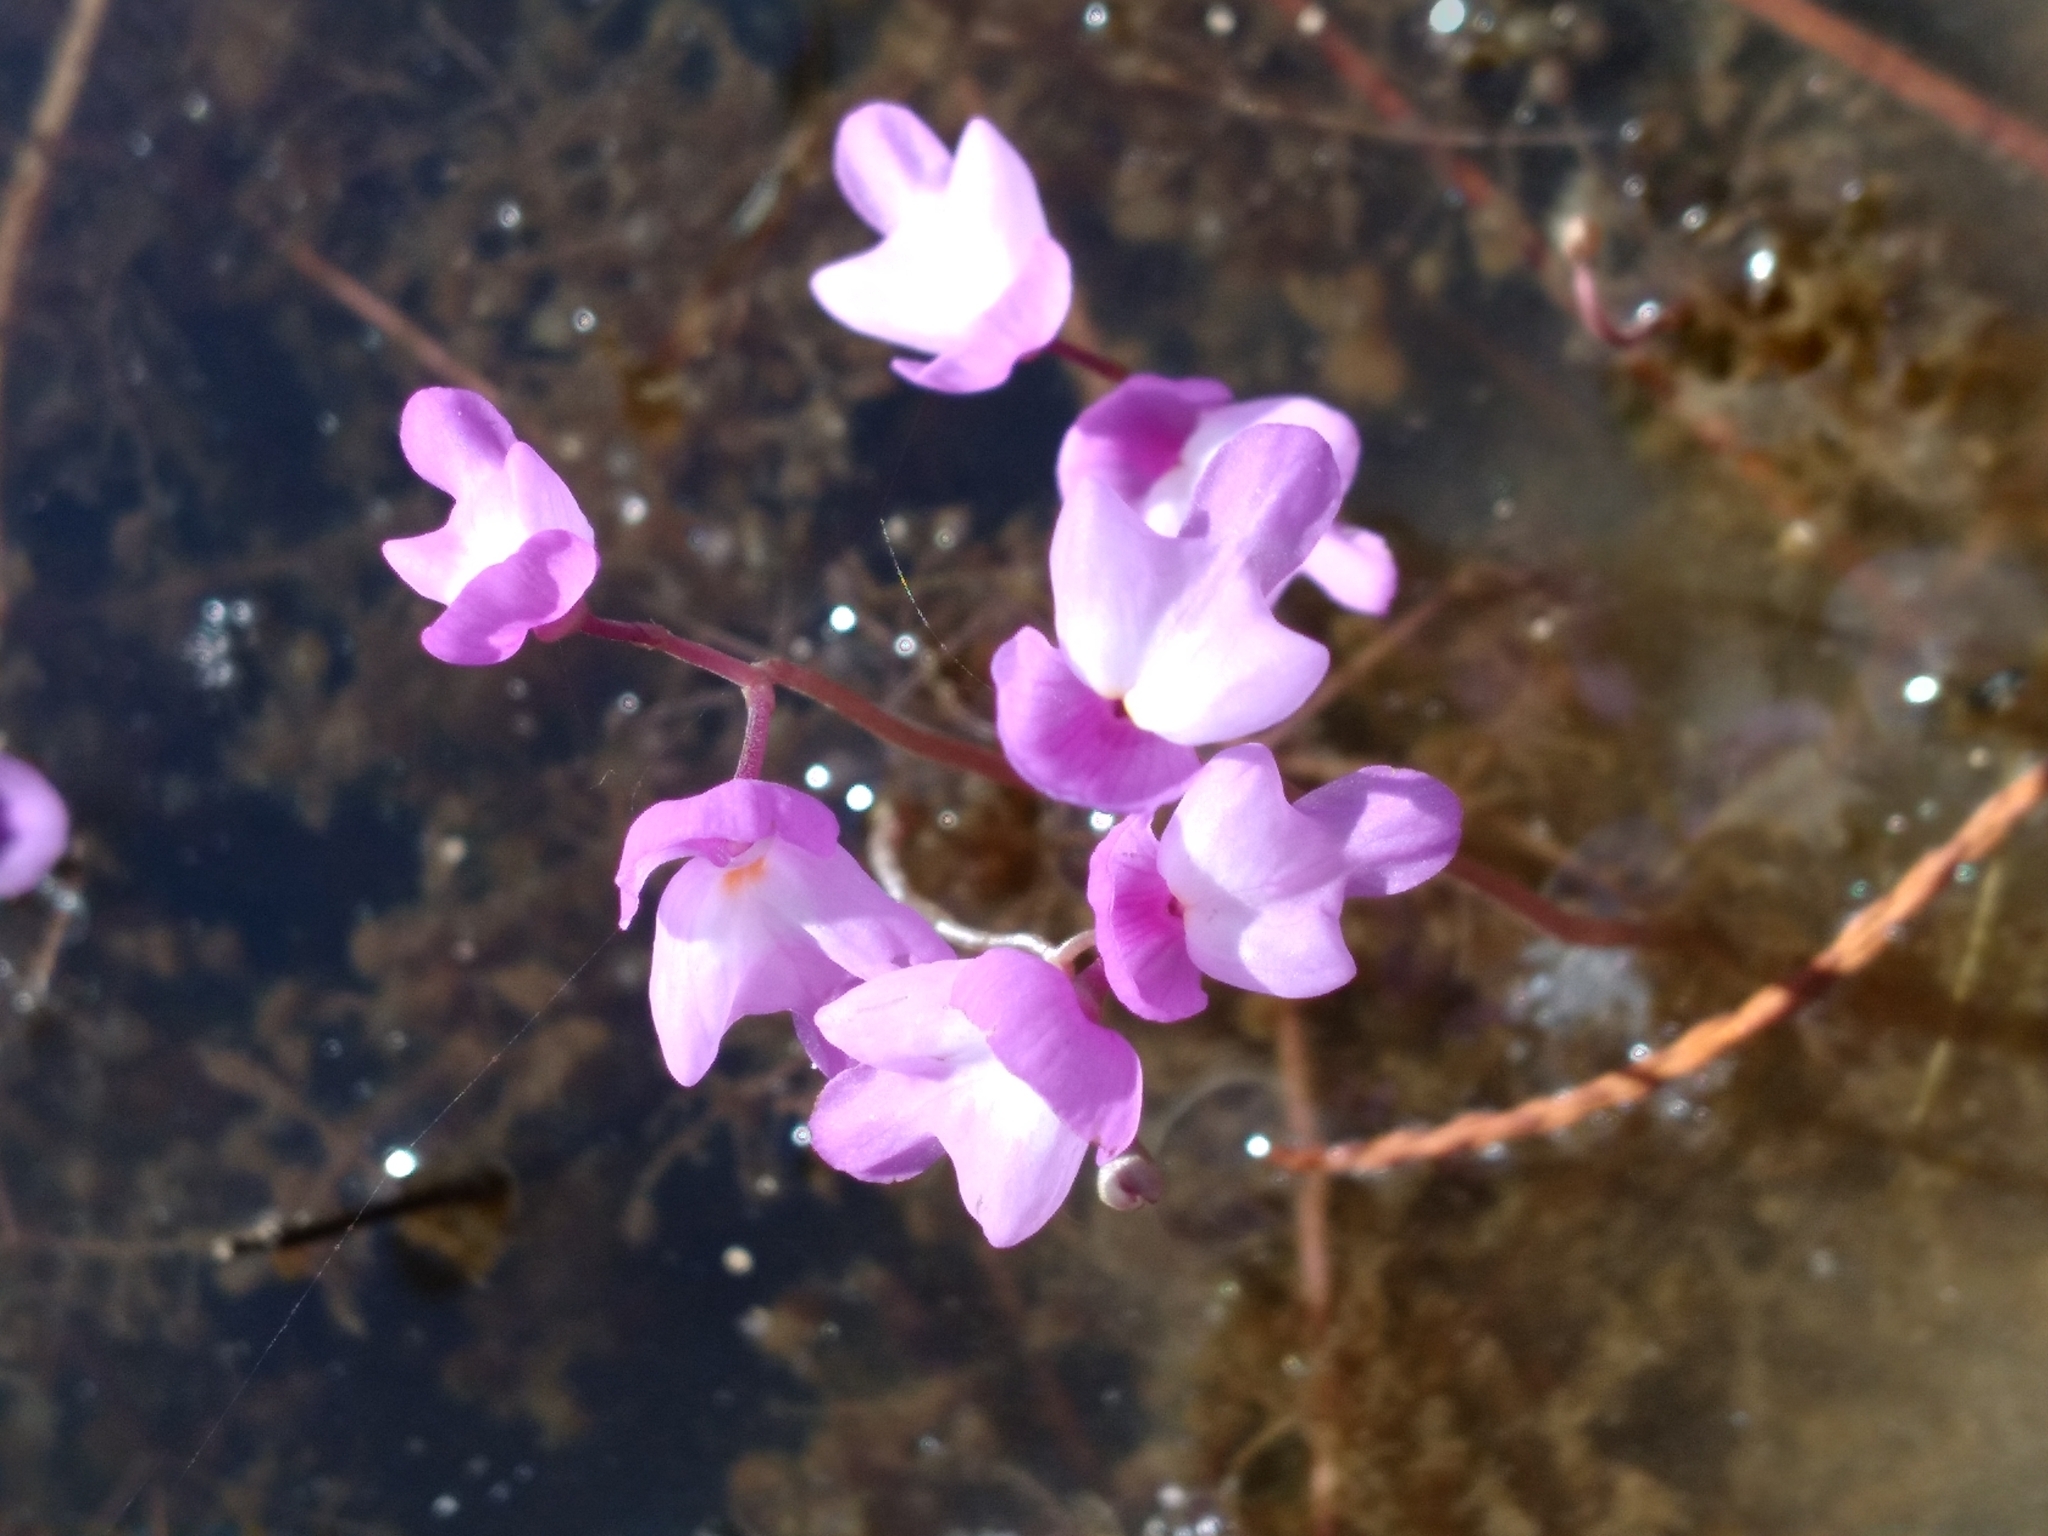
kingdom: Plantae
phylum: Tracheophyta
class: Magnoliopsida
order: Lamiales
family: Lentibulariaceae
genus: Utricularia
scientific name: Utricularia purpurea
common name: Eastern purple bladderwort
